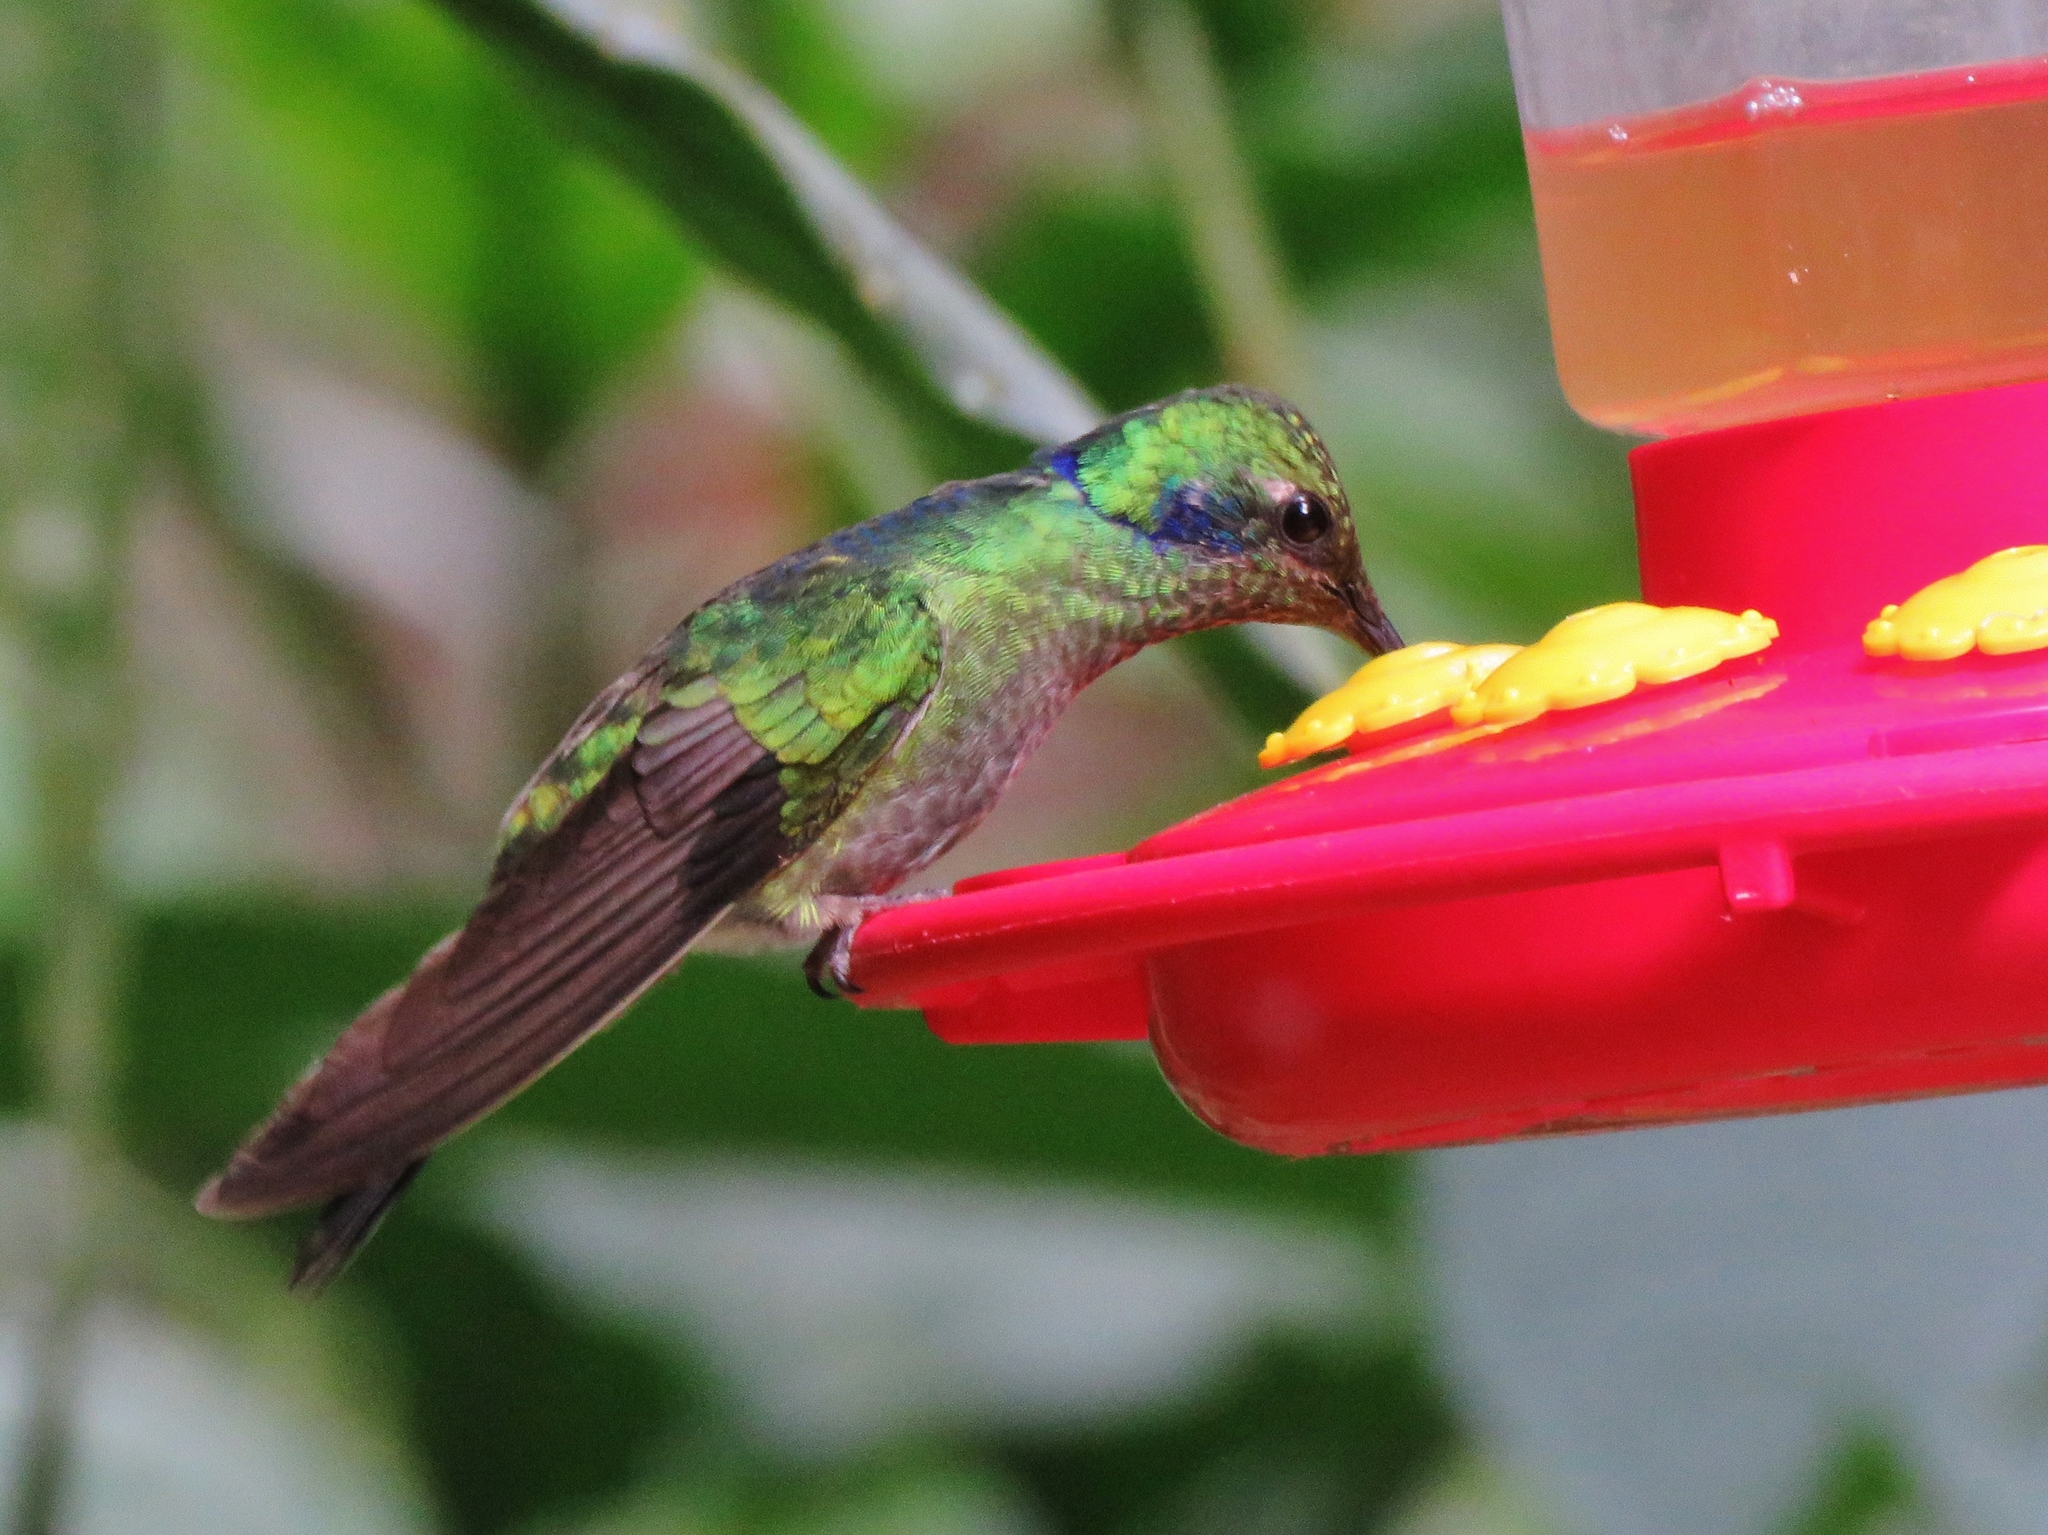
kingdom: Animalia
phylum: Chordata
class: Aves
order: Apodiformes
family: Trochilidae
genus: Colibri
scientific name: Colibri cyanotus
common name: Lesser violetear
